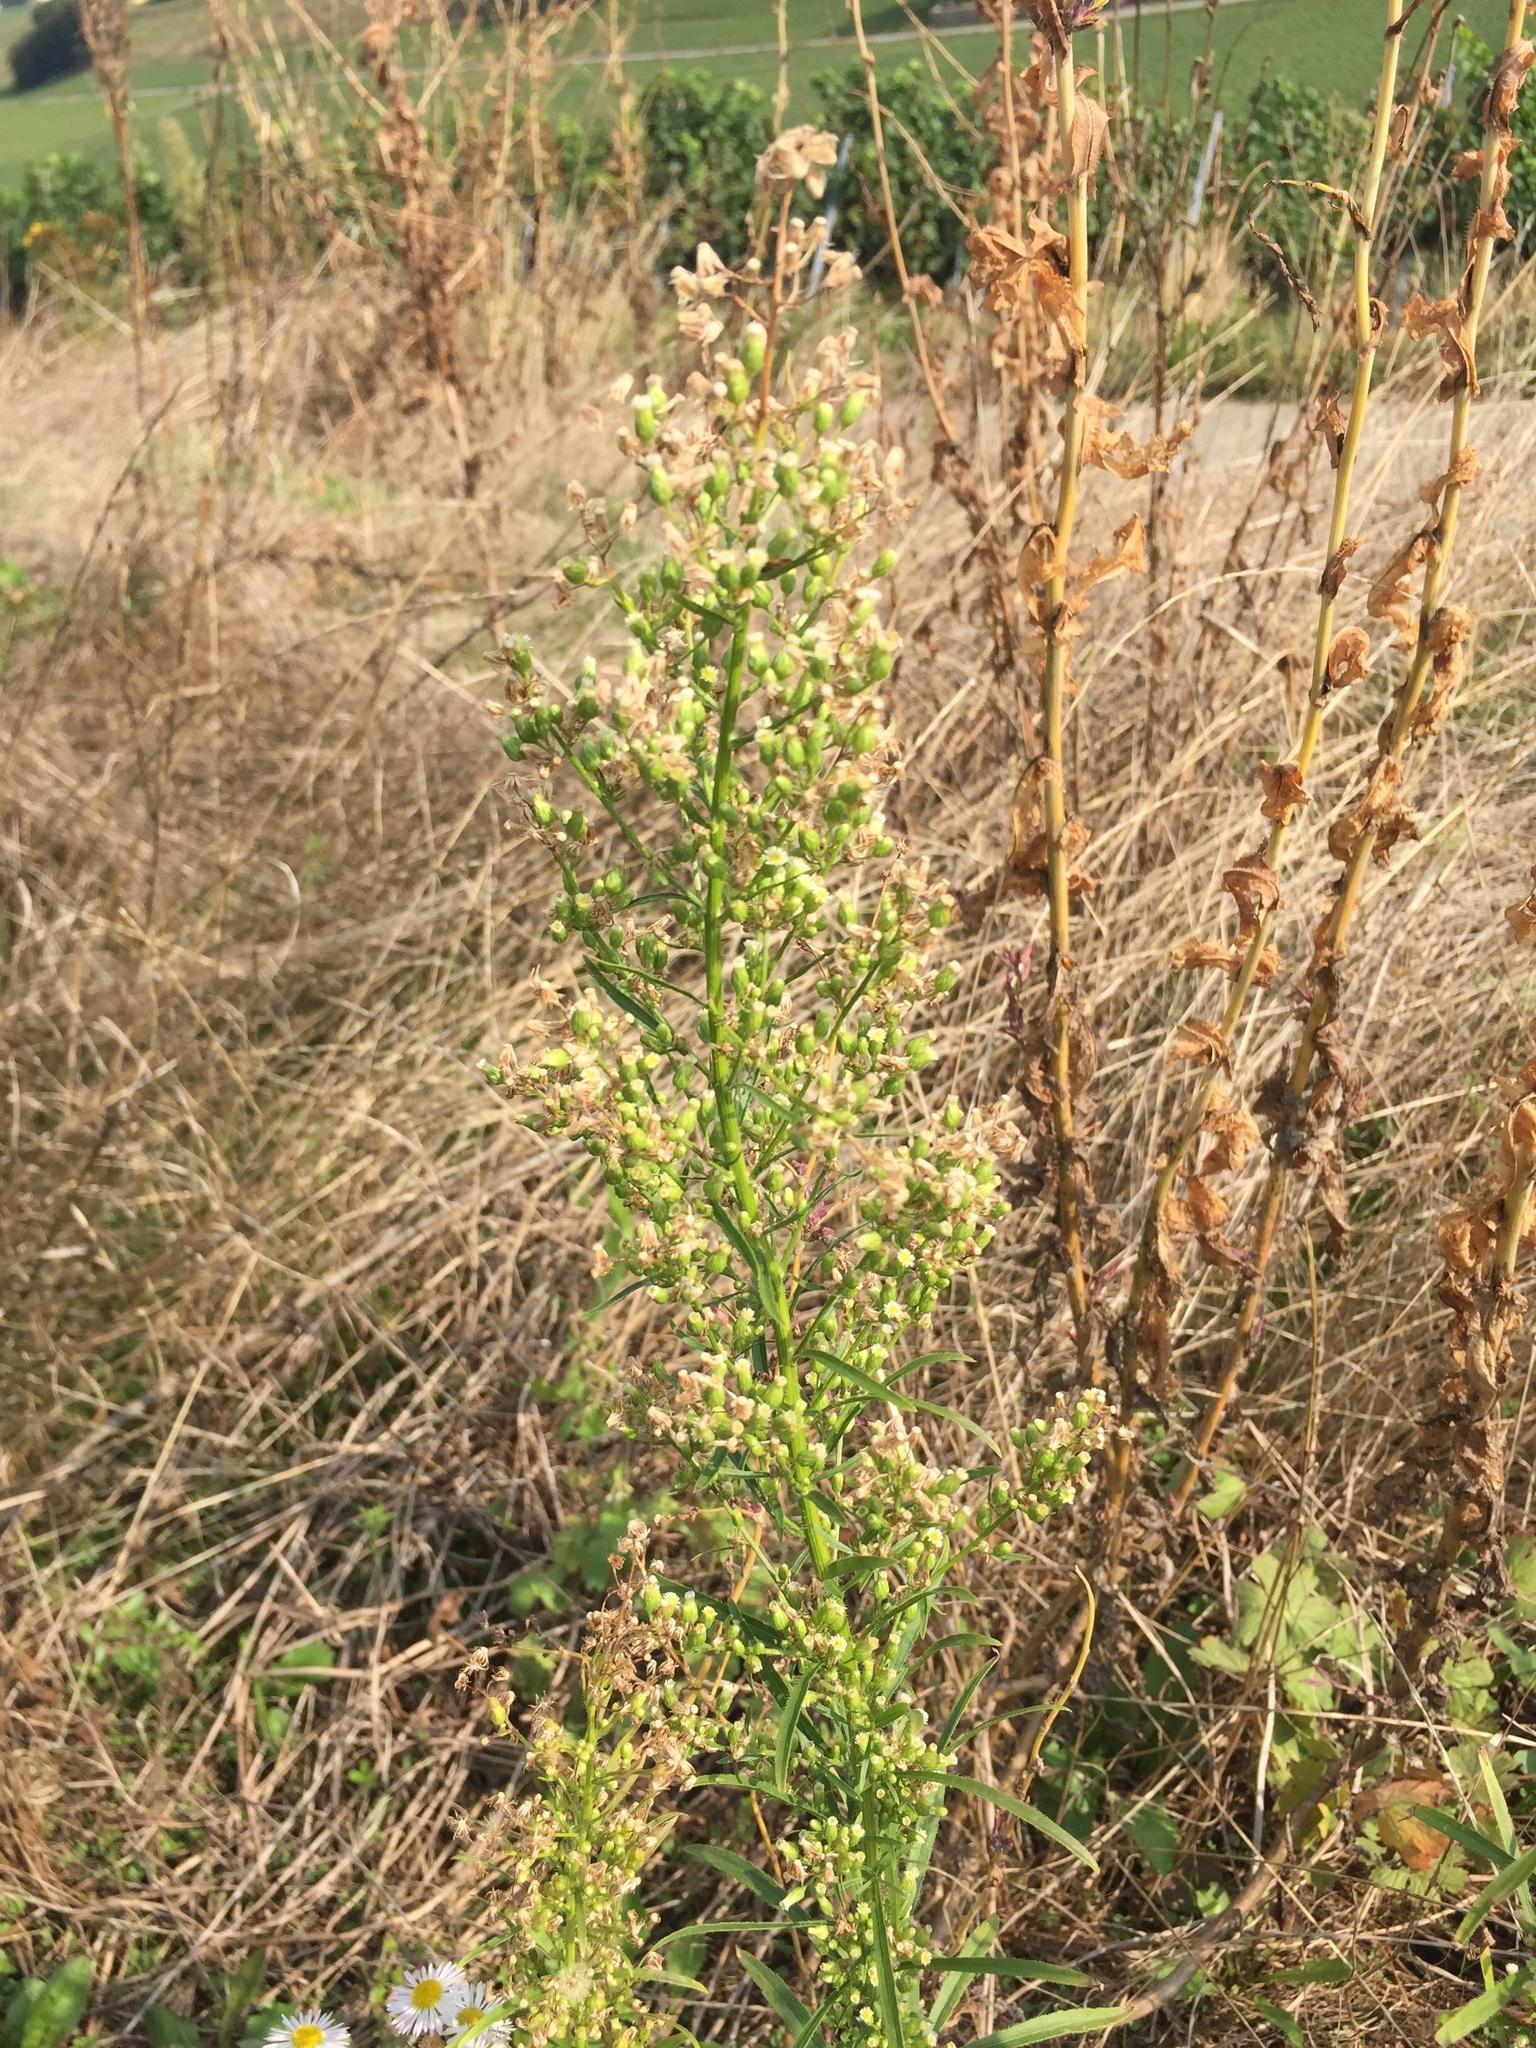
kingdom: Plantae
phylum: Tracheophyta
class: Magnoliopsida
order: Asterales
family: Asteraceae
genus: Erigeron
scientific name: Erigeron canadensis
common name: Canadian fleabane
